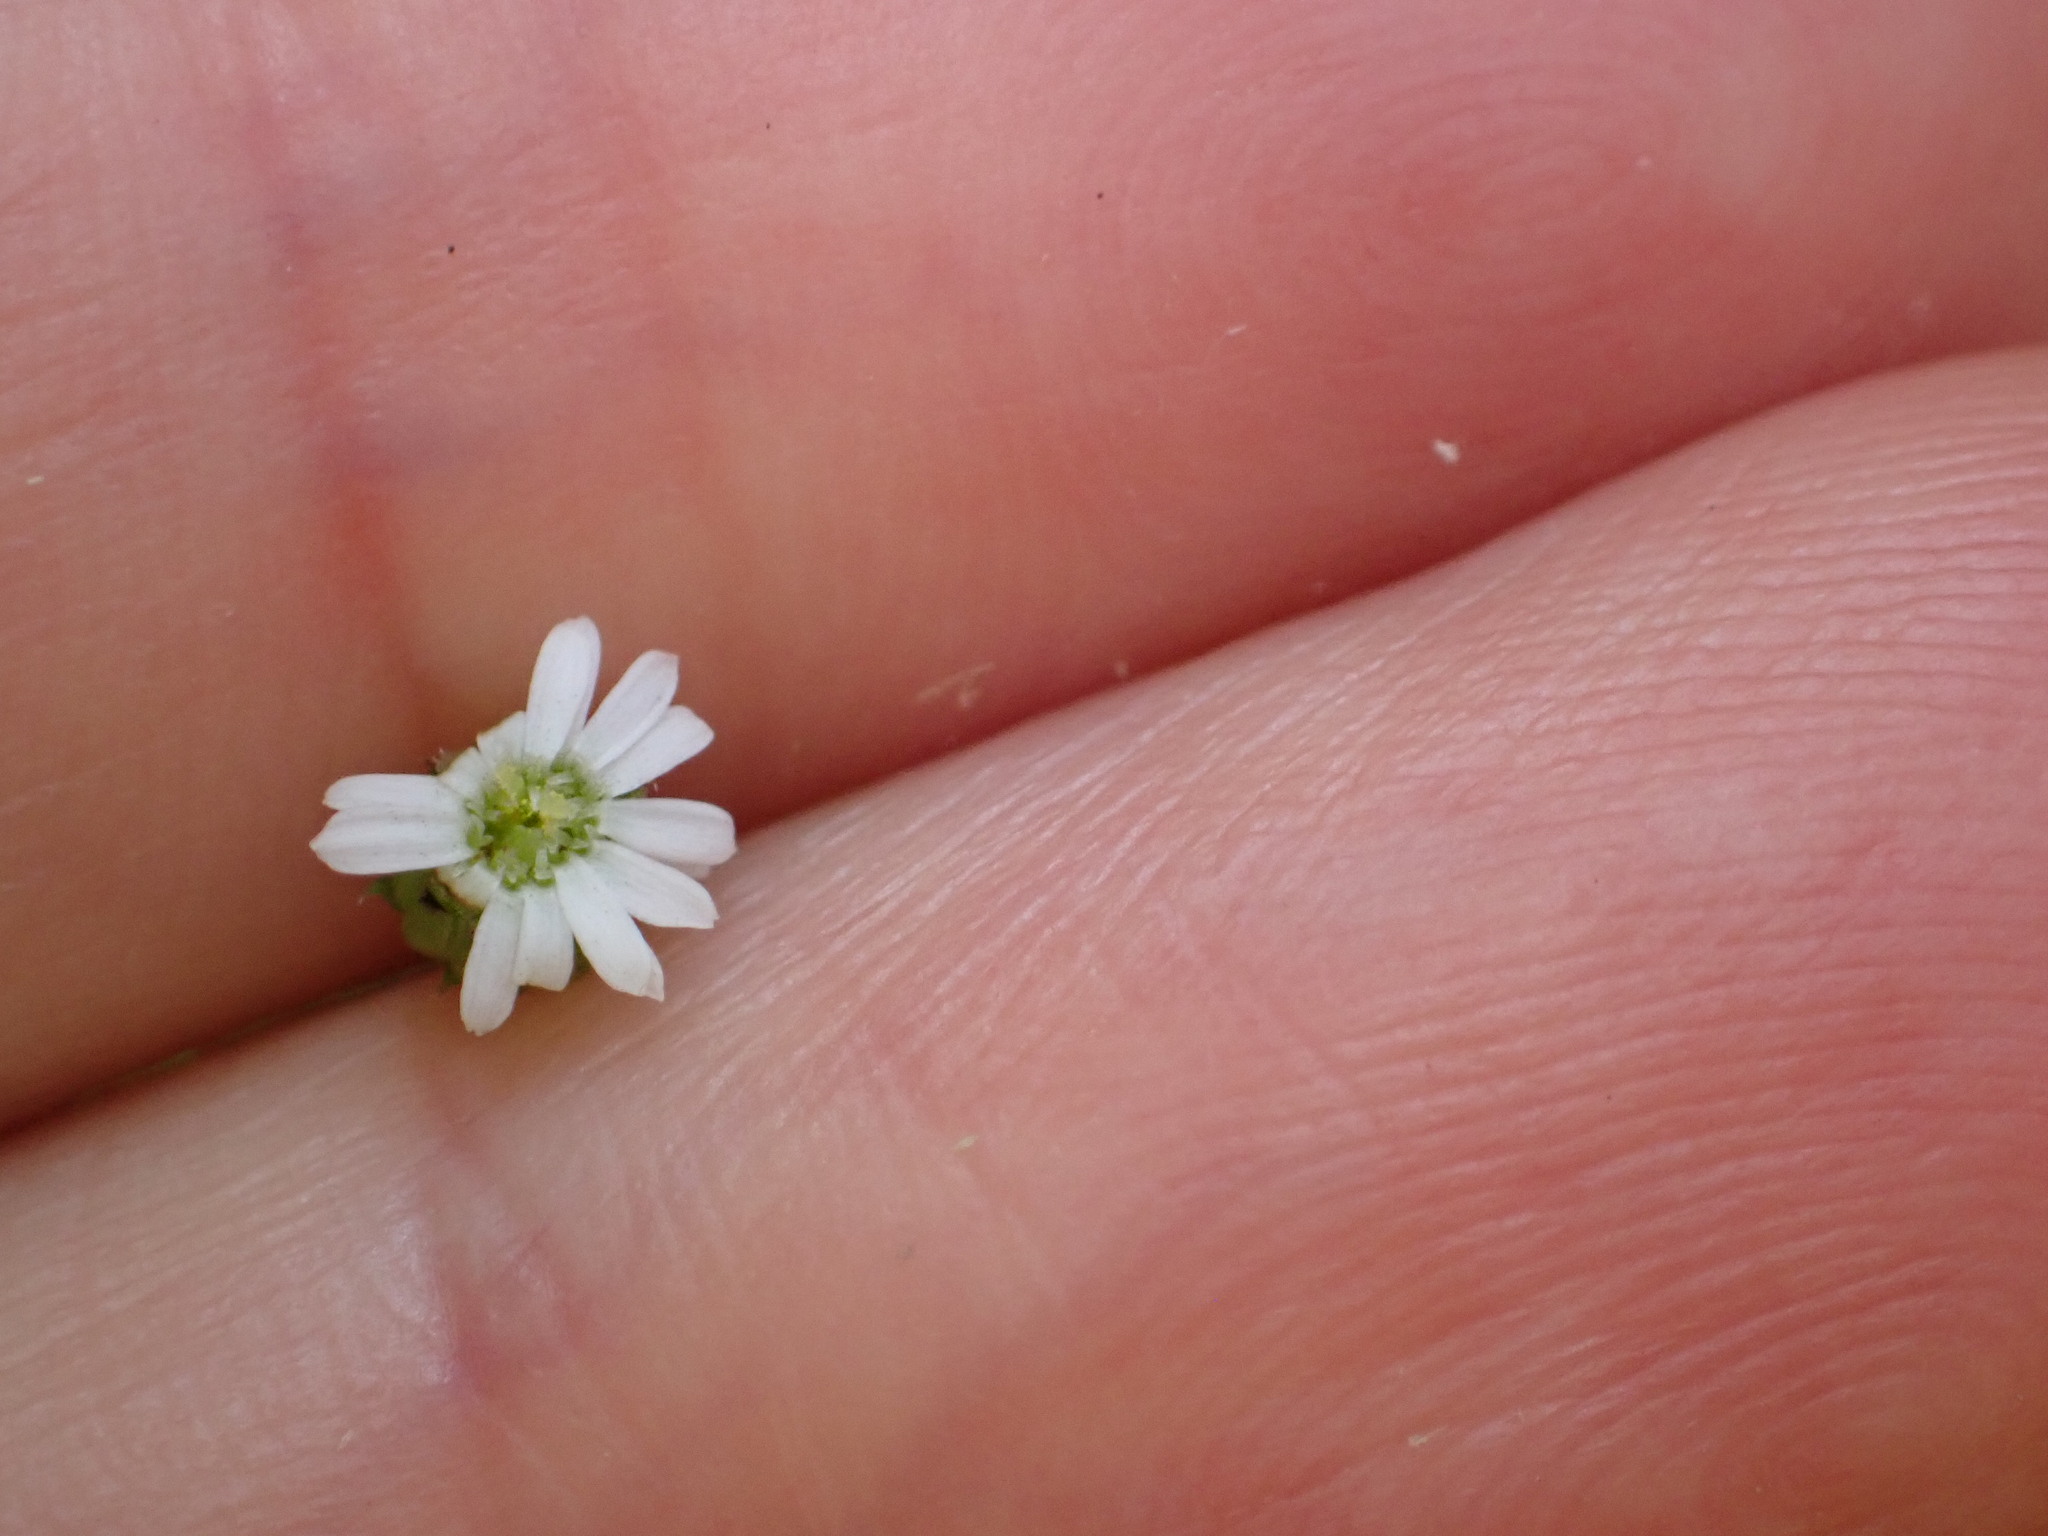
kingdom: Plantae
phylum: Tracheophyta
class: Magnoliopsida
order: Asterales
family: Asteraceae
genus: Lagenophora
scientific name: Lagenophora strangulata
